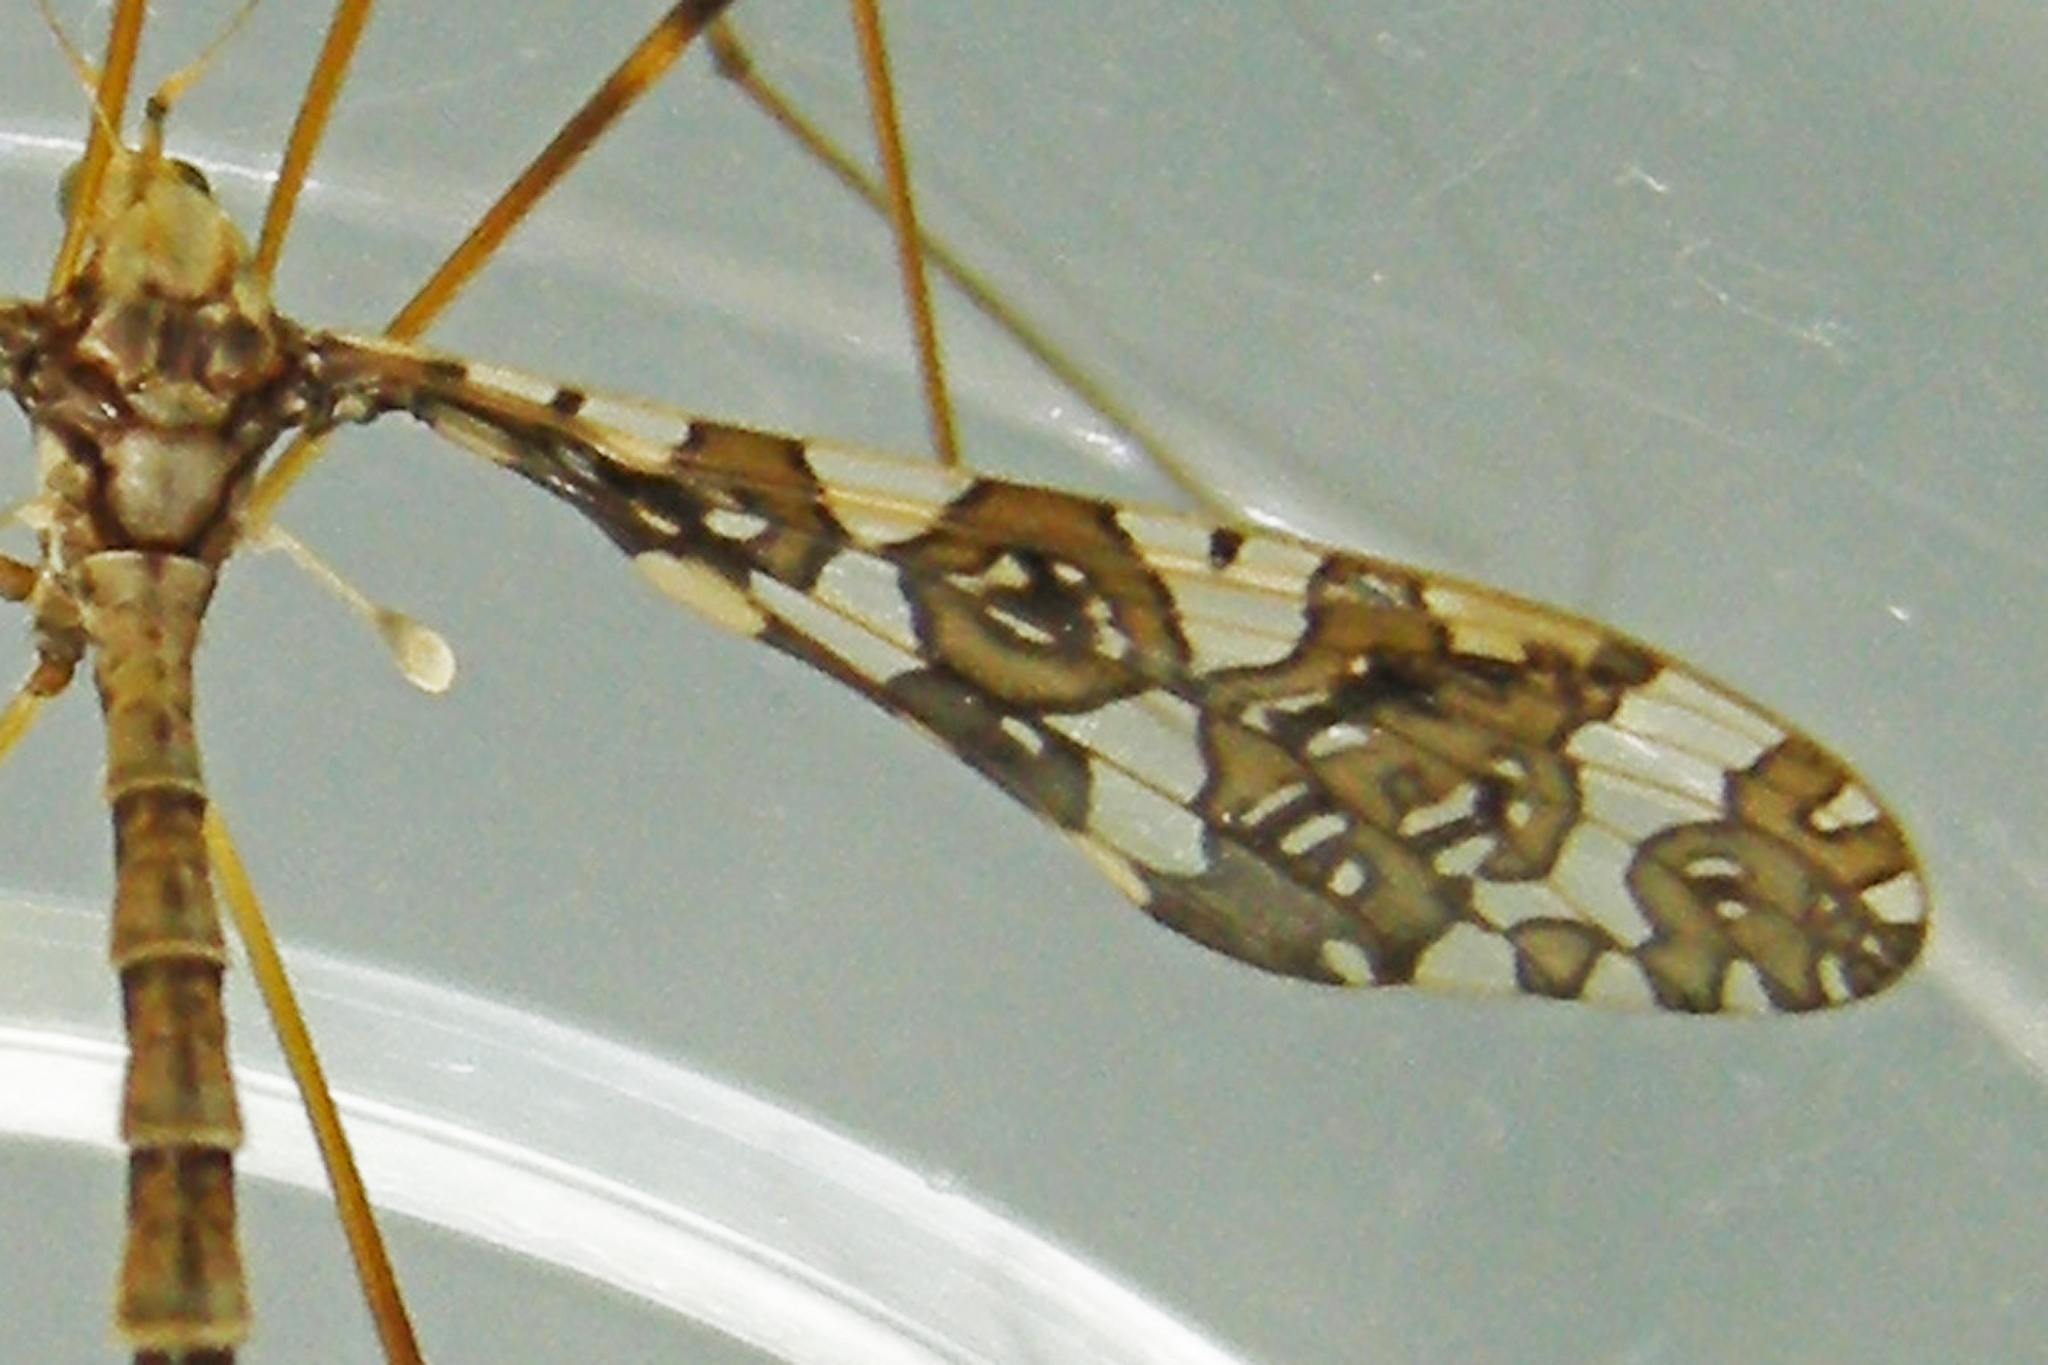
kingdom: Animalia
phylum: Arthropoda
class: Insecta
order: Diptera
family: Limoniidae
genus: Epiphragma
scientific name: Epiphragma fasciapenne
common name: Band-winged crane fly
